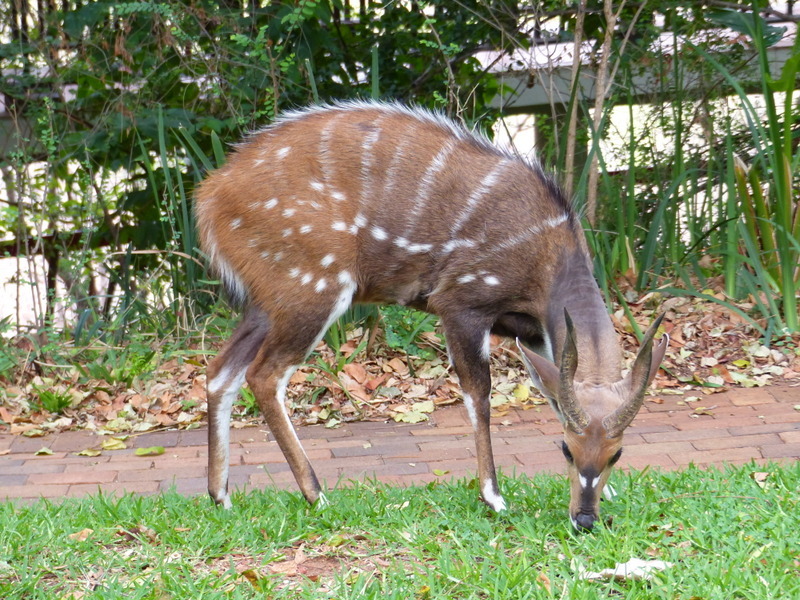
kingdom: Animalia
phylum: Chordata
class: Mammalia
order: Artiodactyla
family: Bovidae
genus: Tragelaphus
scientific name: Tragelaphus scriptus
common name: Bushbuck
